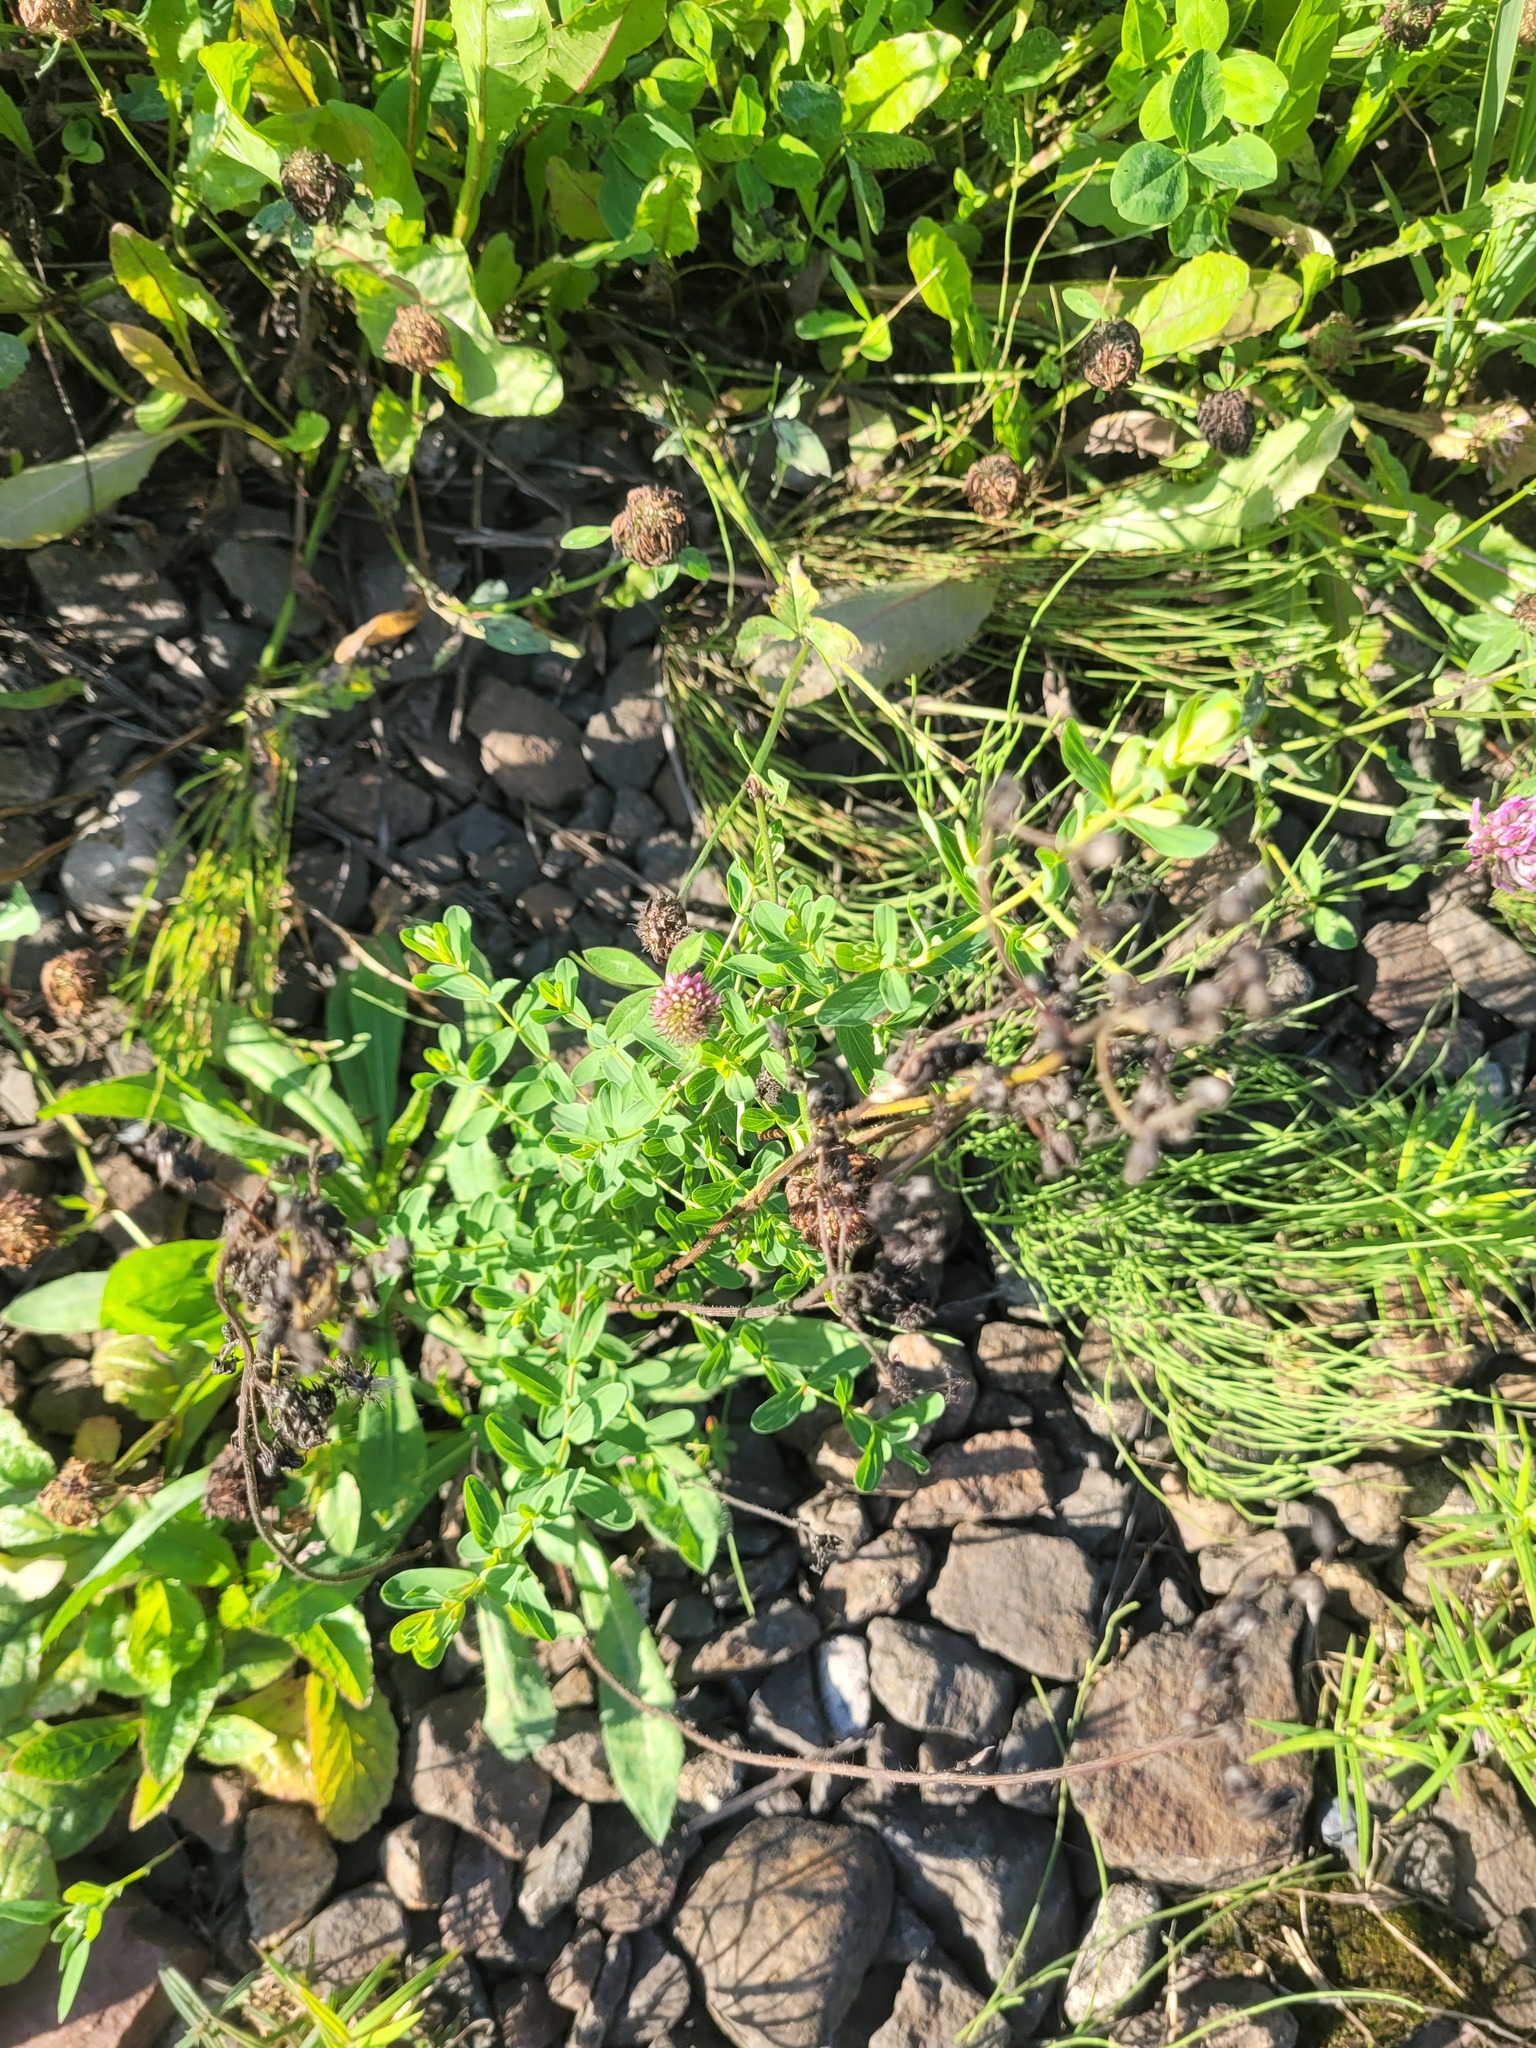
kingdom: Plantae
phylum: Tracheophyta
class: Magnoliopsida
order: Malpighiales
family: Hypericaceae
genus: Hypericum
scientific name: Hypericum perforatum
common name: Common st. johnswort
